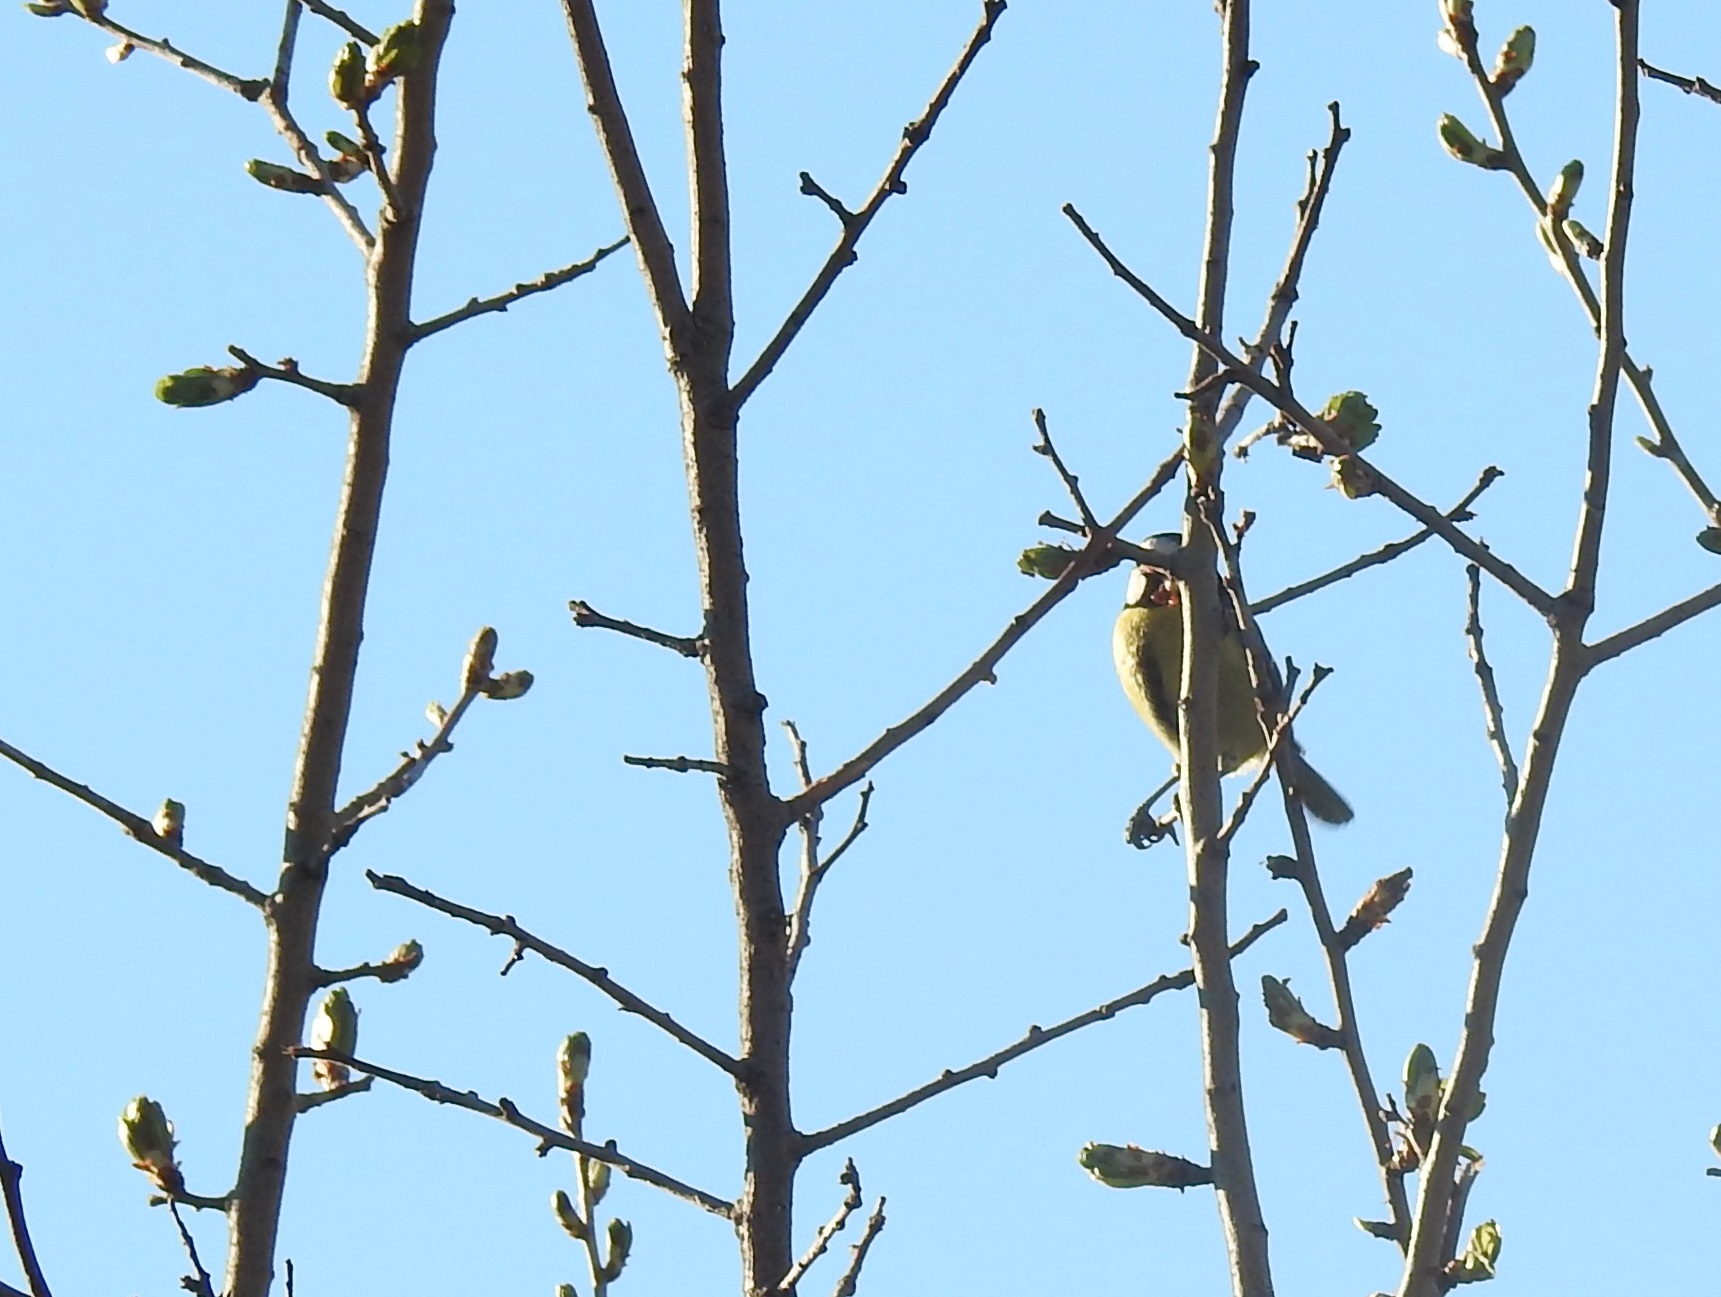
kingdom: Animalia
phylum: Chordata
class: Aves
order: Passeriformes
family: Paridae
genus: Cyanistes
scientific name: Cyanistes teneriffae
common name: African blue tit
